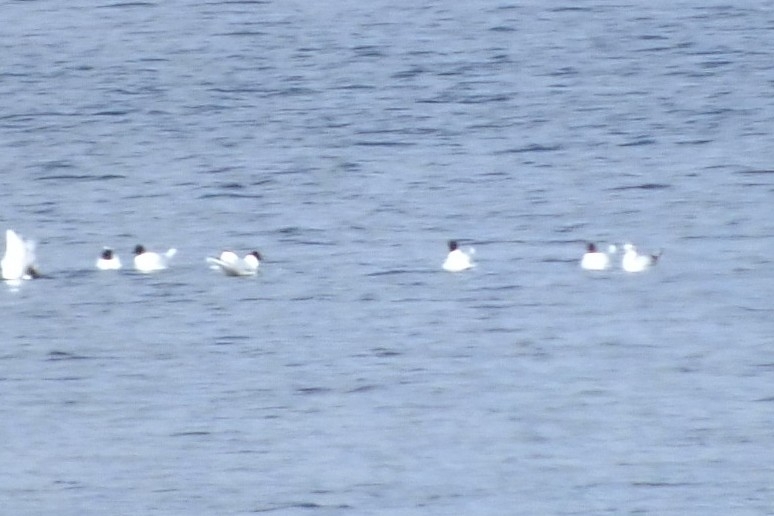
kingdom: Animalia
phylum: Chordata
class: Aves
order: Charadriiformes
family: Laridae
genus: Hydrocoloeus
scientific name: Hydrocoloeus minutus
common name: Little gull
